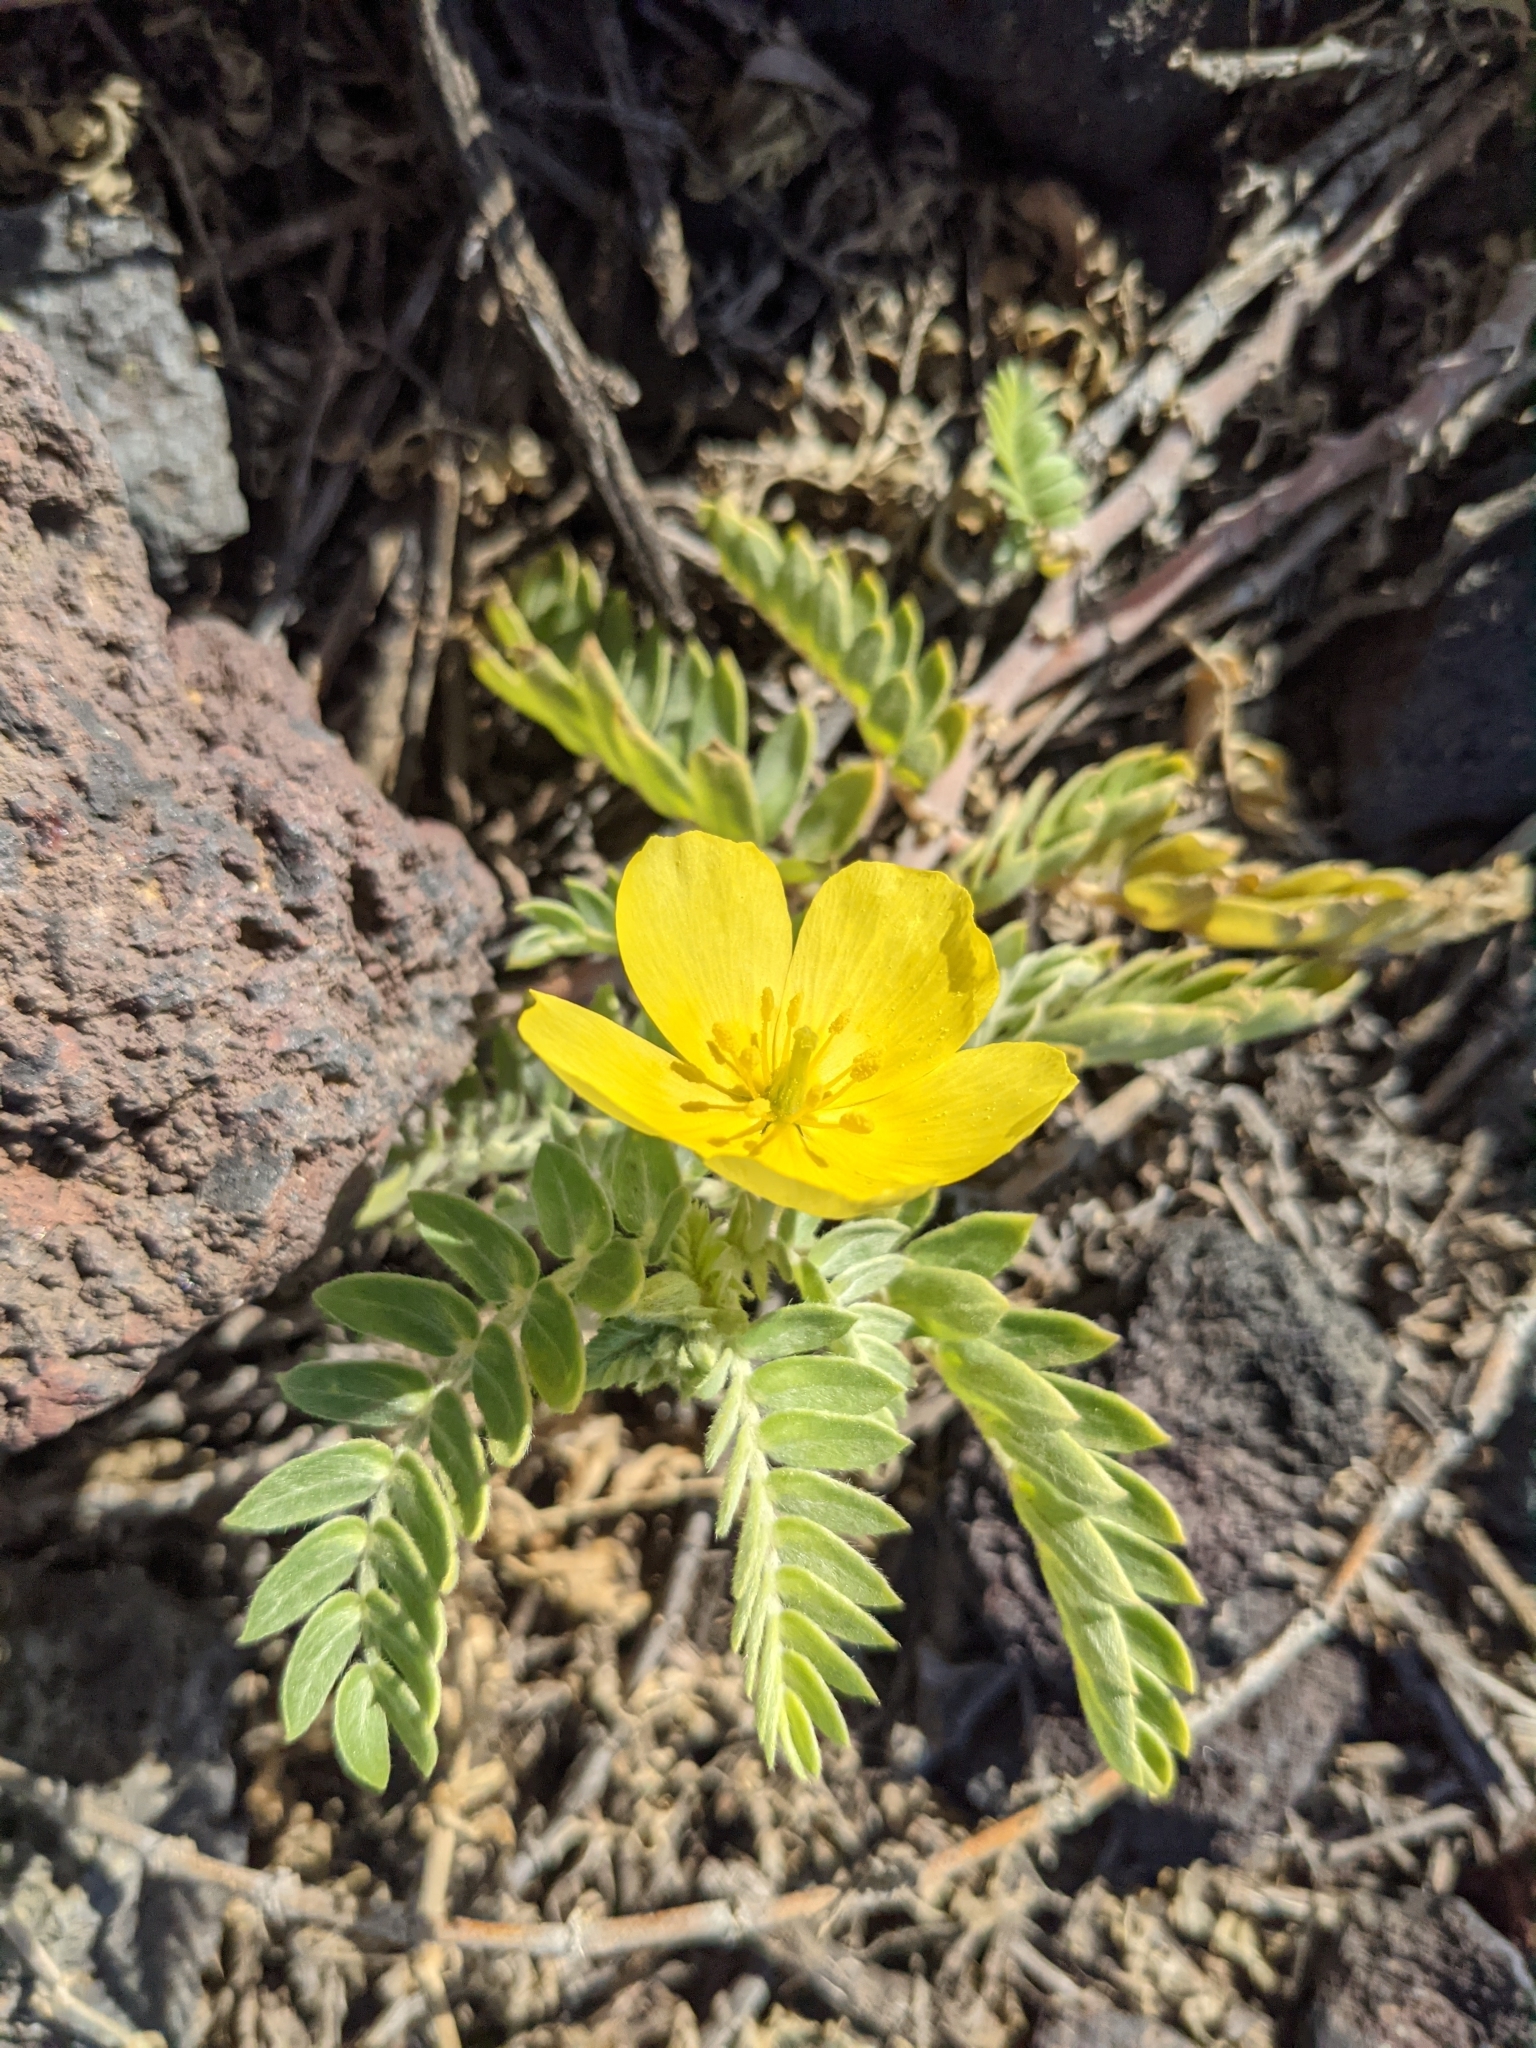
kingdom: Plantae
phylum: Tracheophyta
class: Magnoliopsida
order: Zygophyllales
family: Zygophyllaceae
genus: Tribulus
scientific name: Tribulus cistoides
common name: Jamaican feverplant
